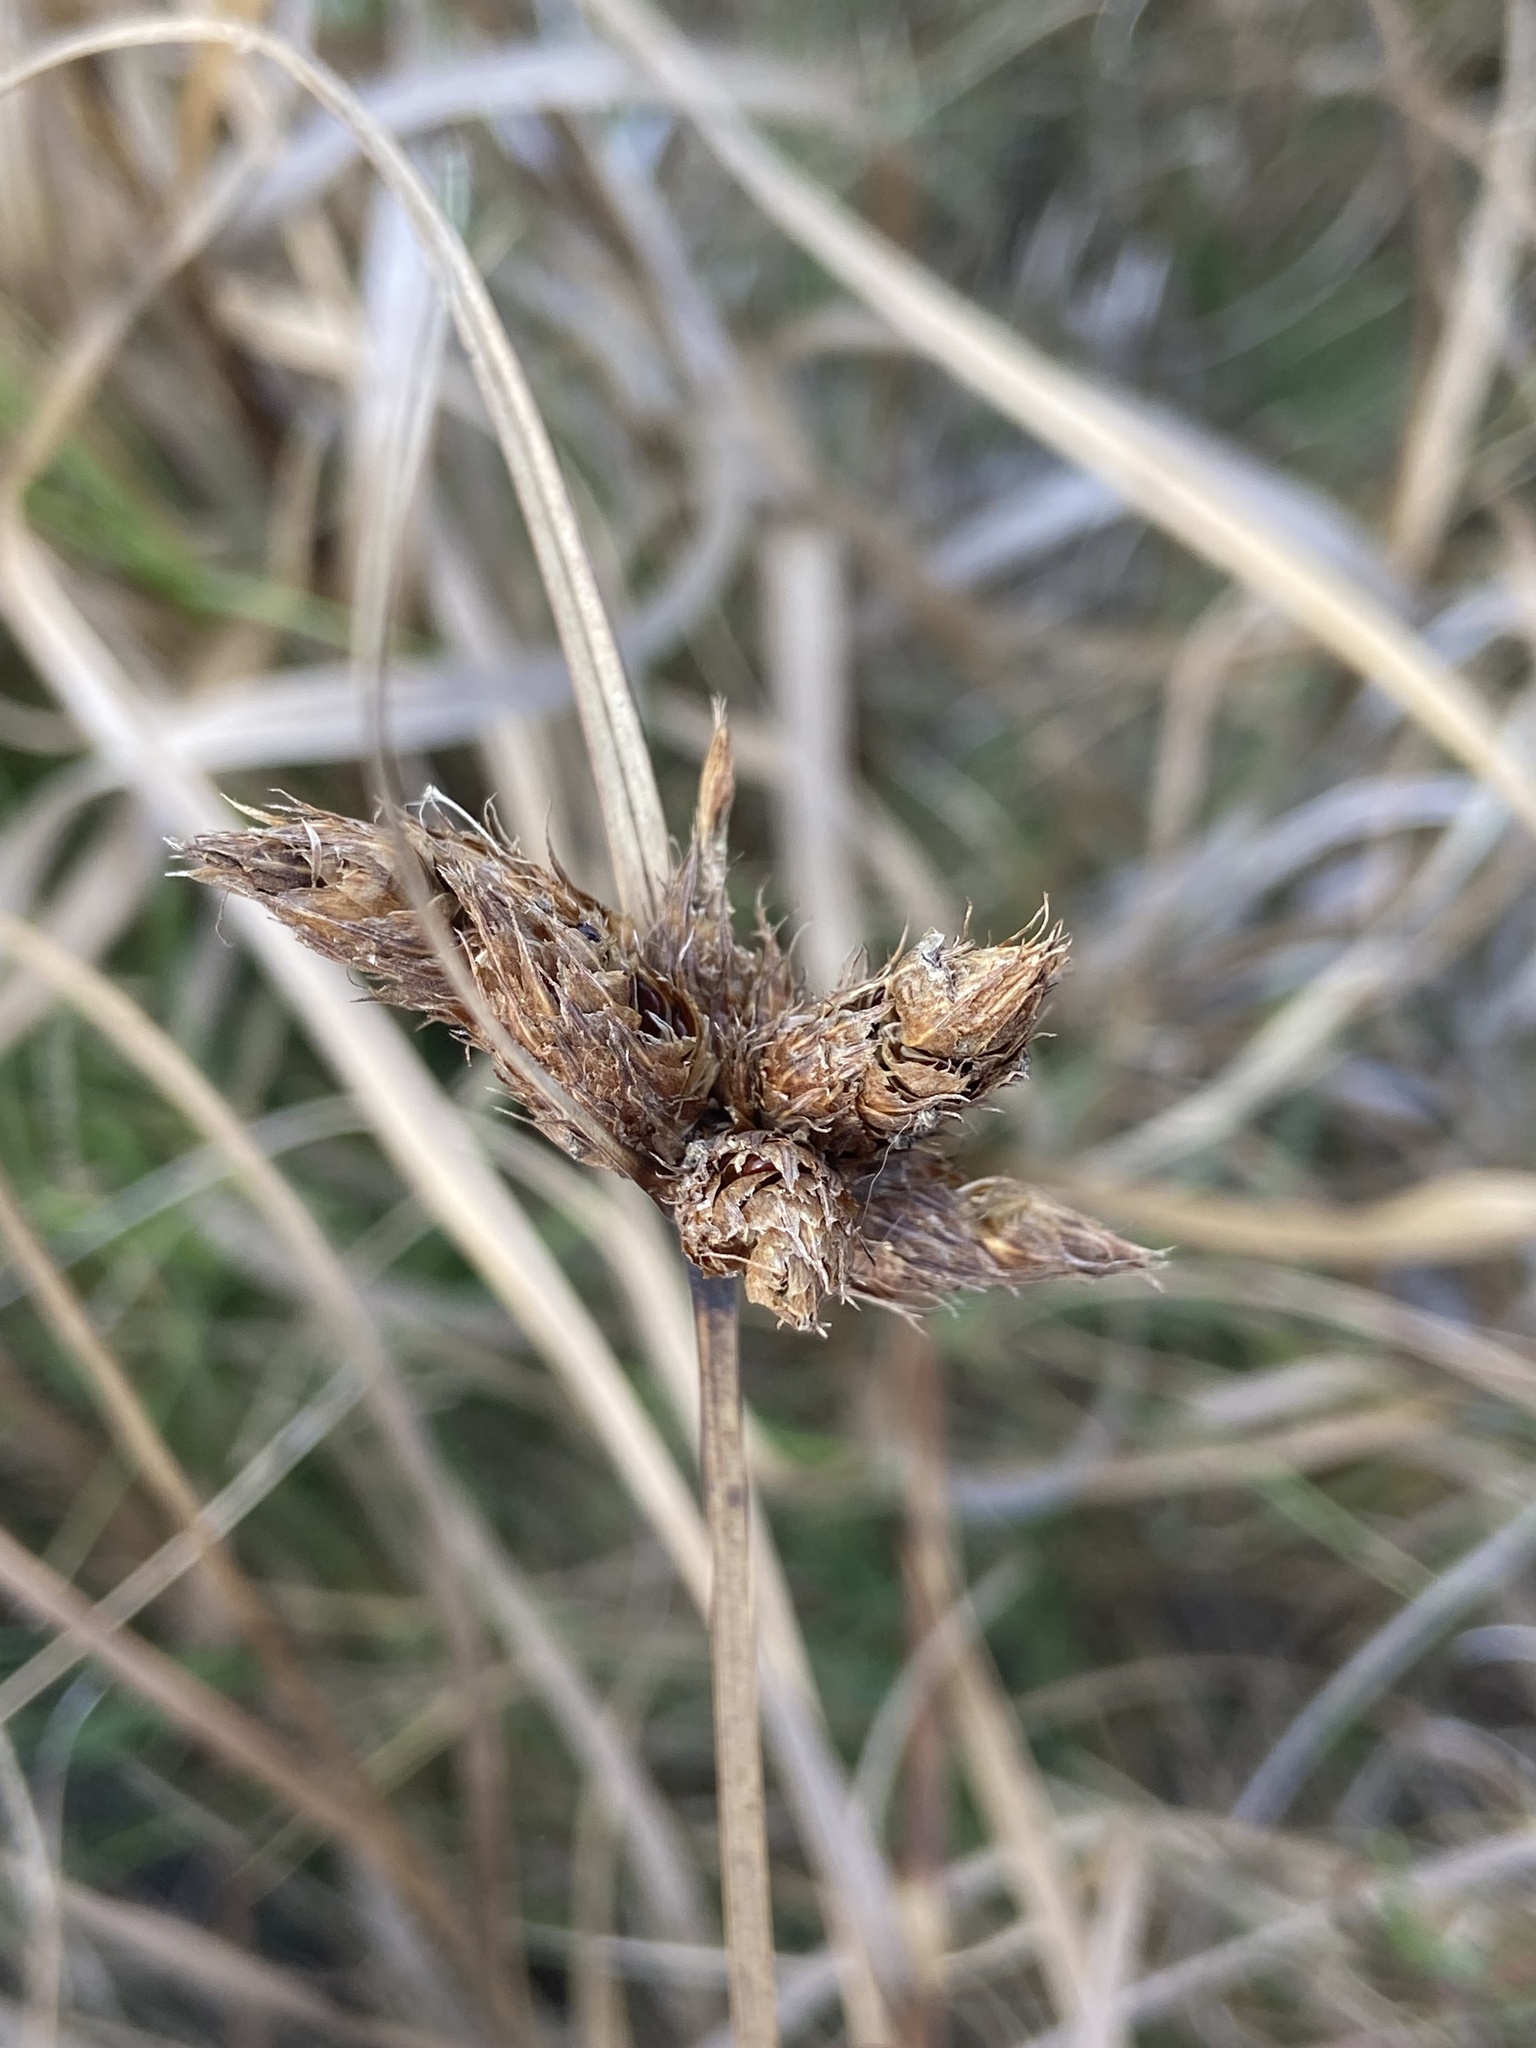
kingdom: Plantae
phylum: Tracheophyta
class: Liliopsida
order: Poales
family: Cyperaceae
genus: Bolboschoenus
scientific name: Bolboschoenus maritimus
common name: Sea club-rush
